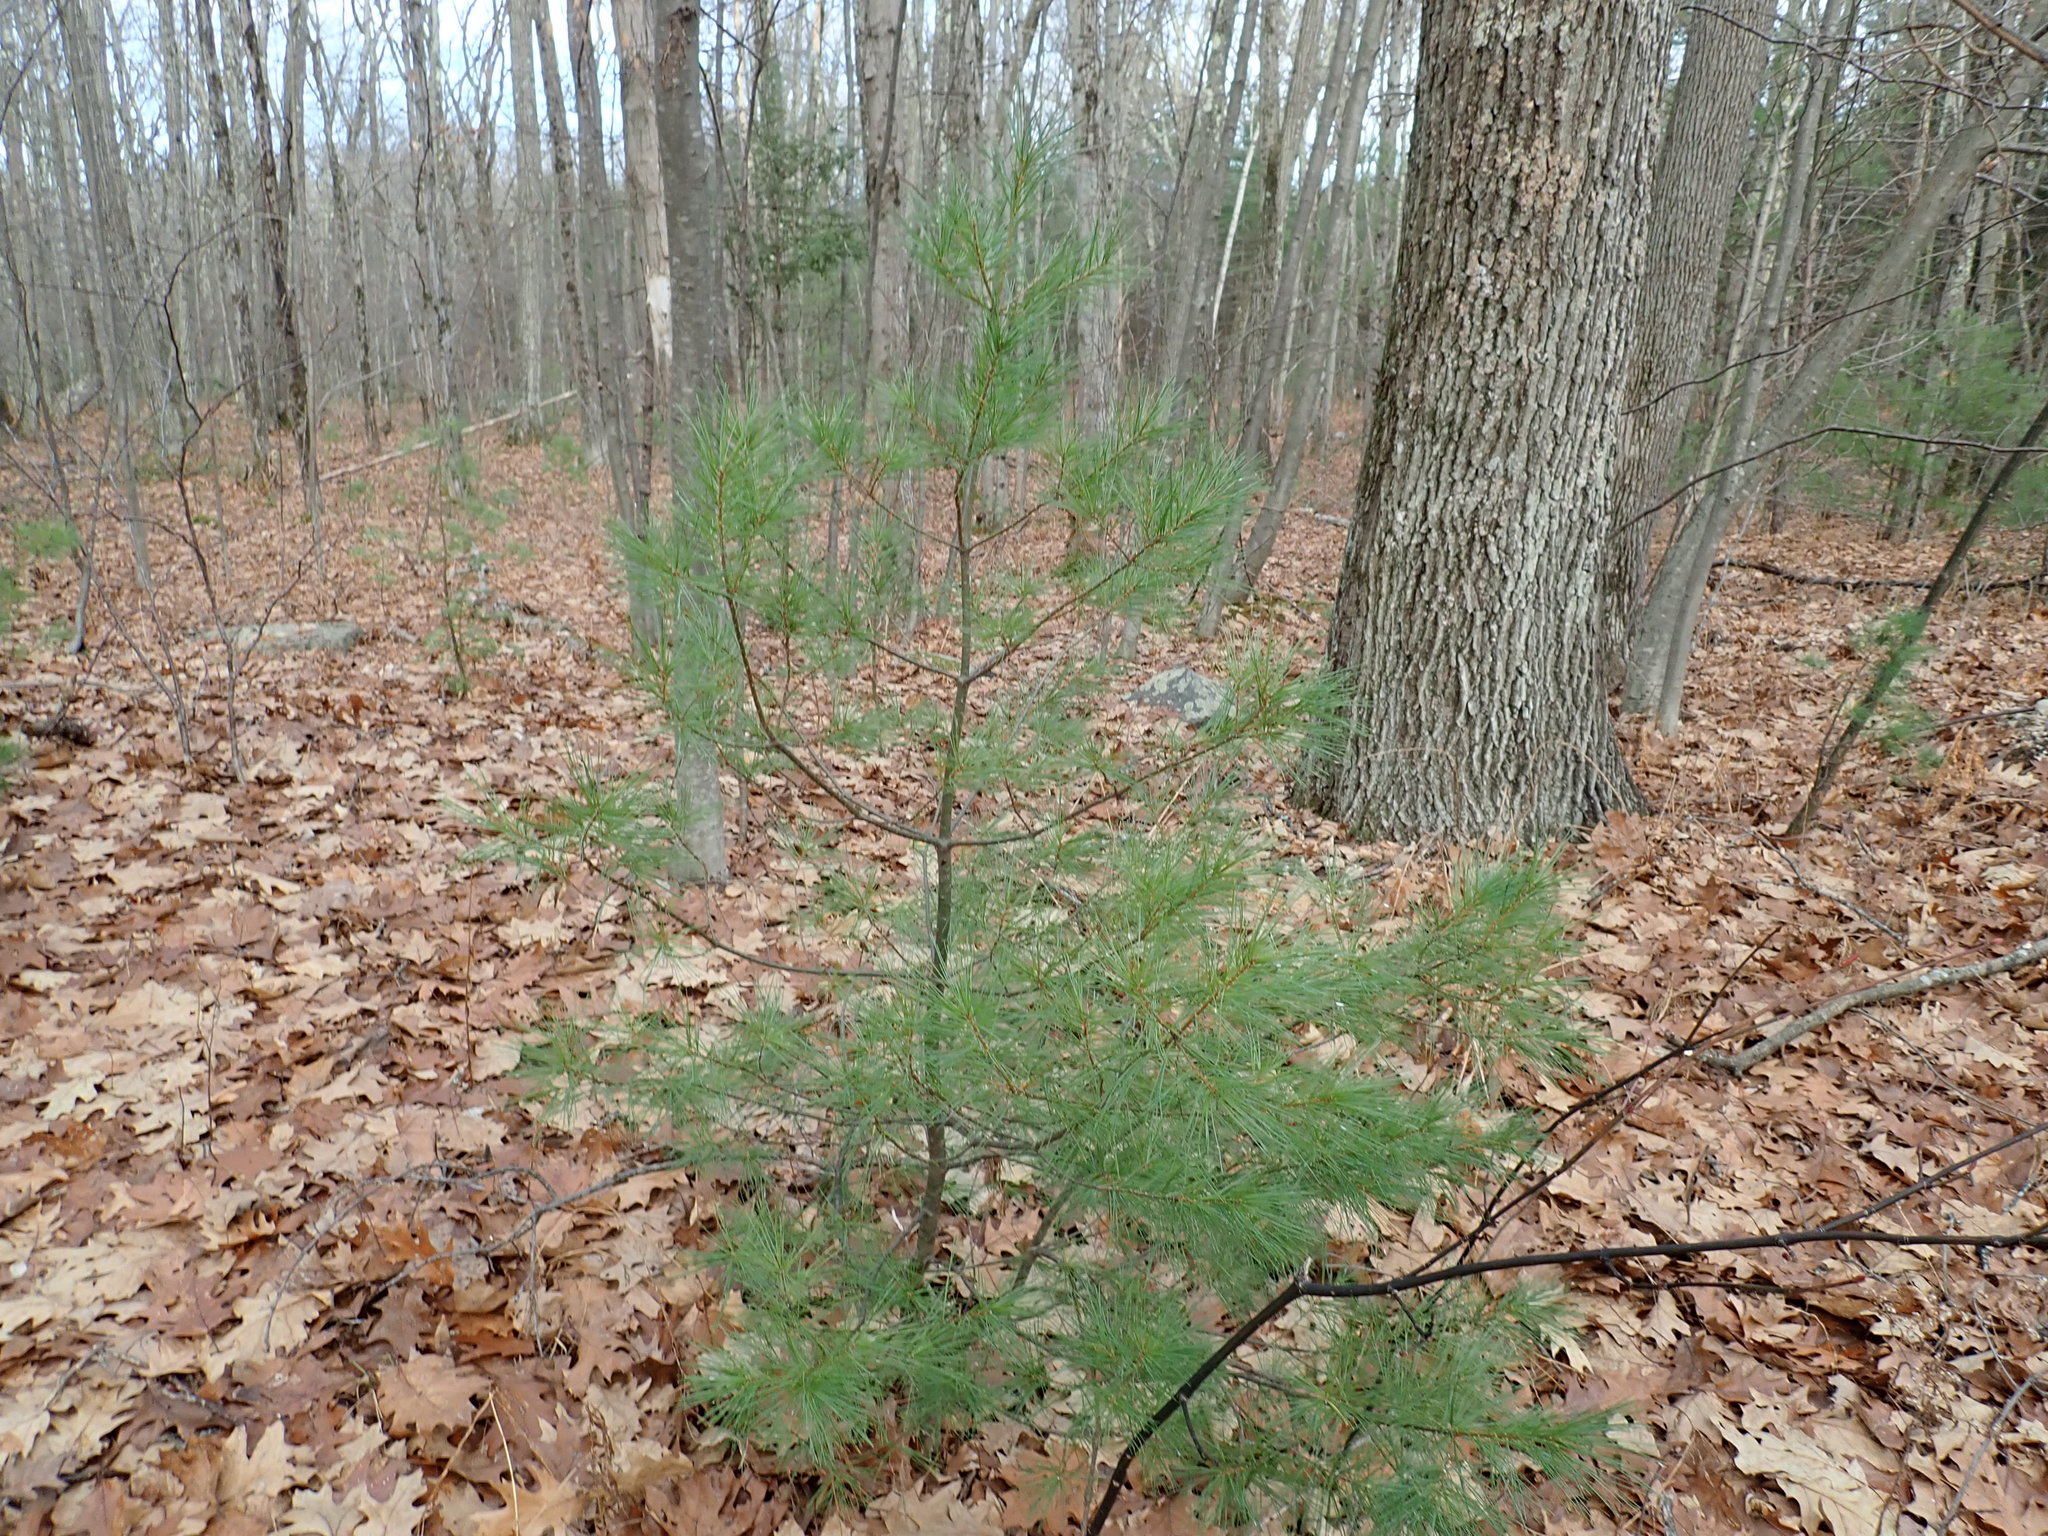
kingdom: Plantae
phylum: Tracheophyta
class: Pinopsida
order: Pinales
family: Pinaceae
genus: Pinus
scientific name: Pinus strobus
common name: Weymouth pine
